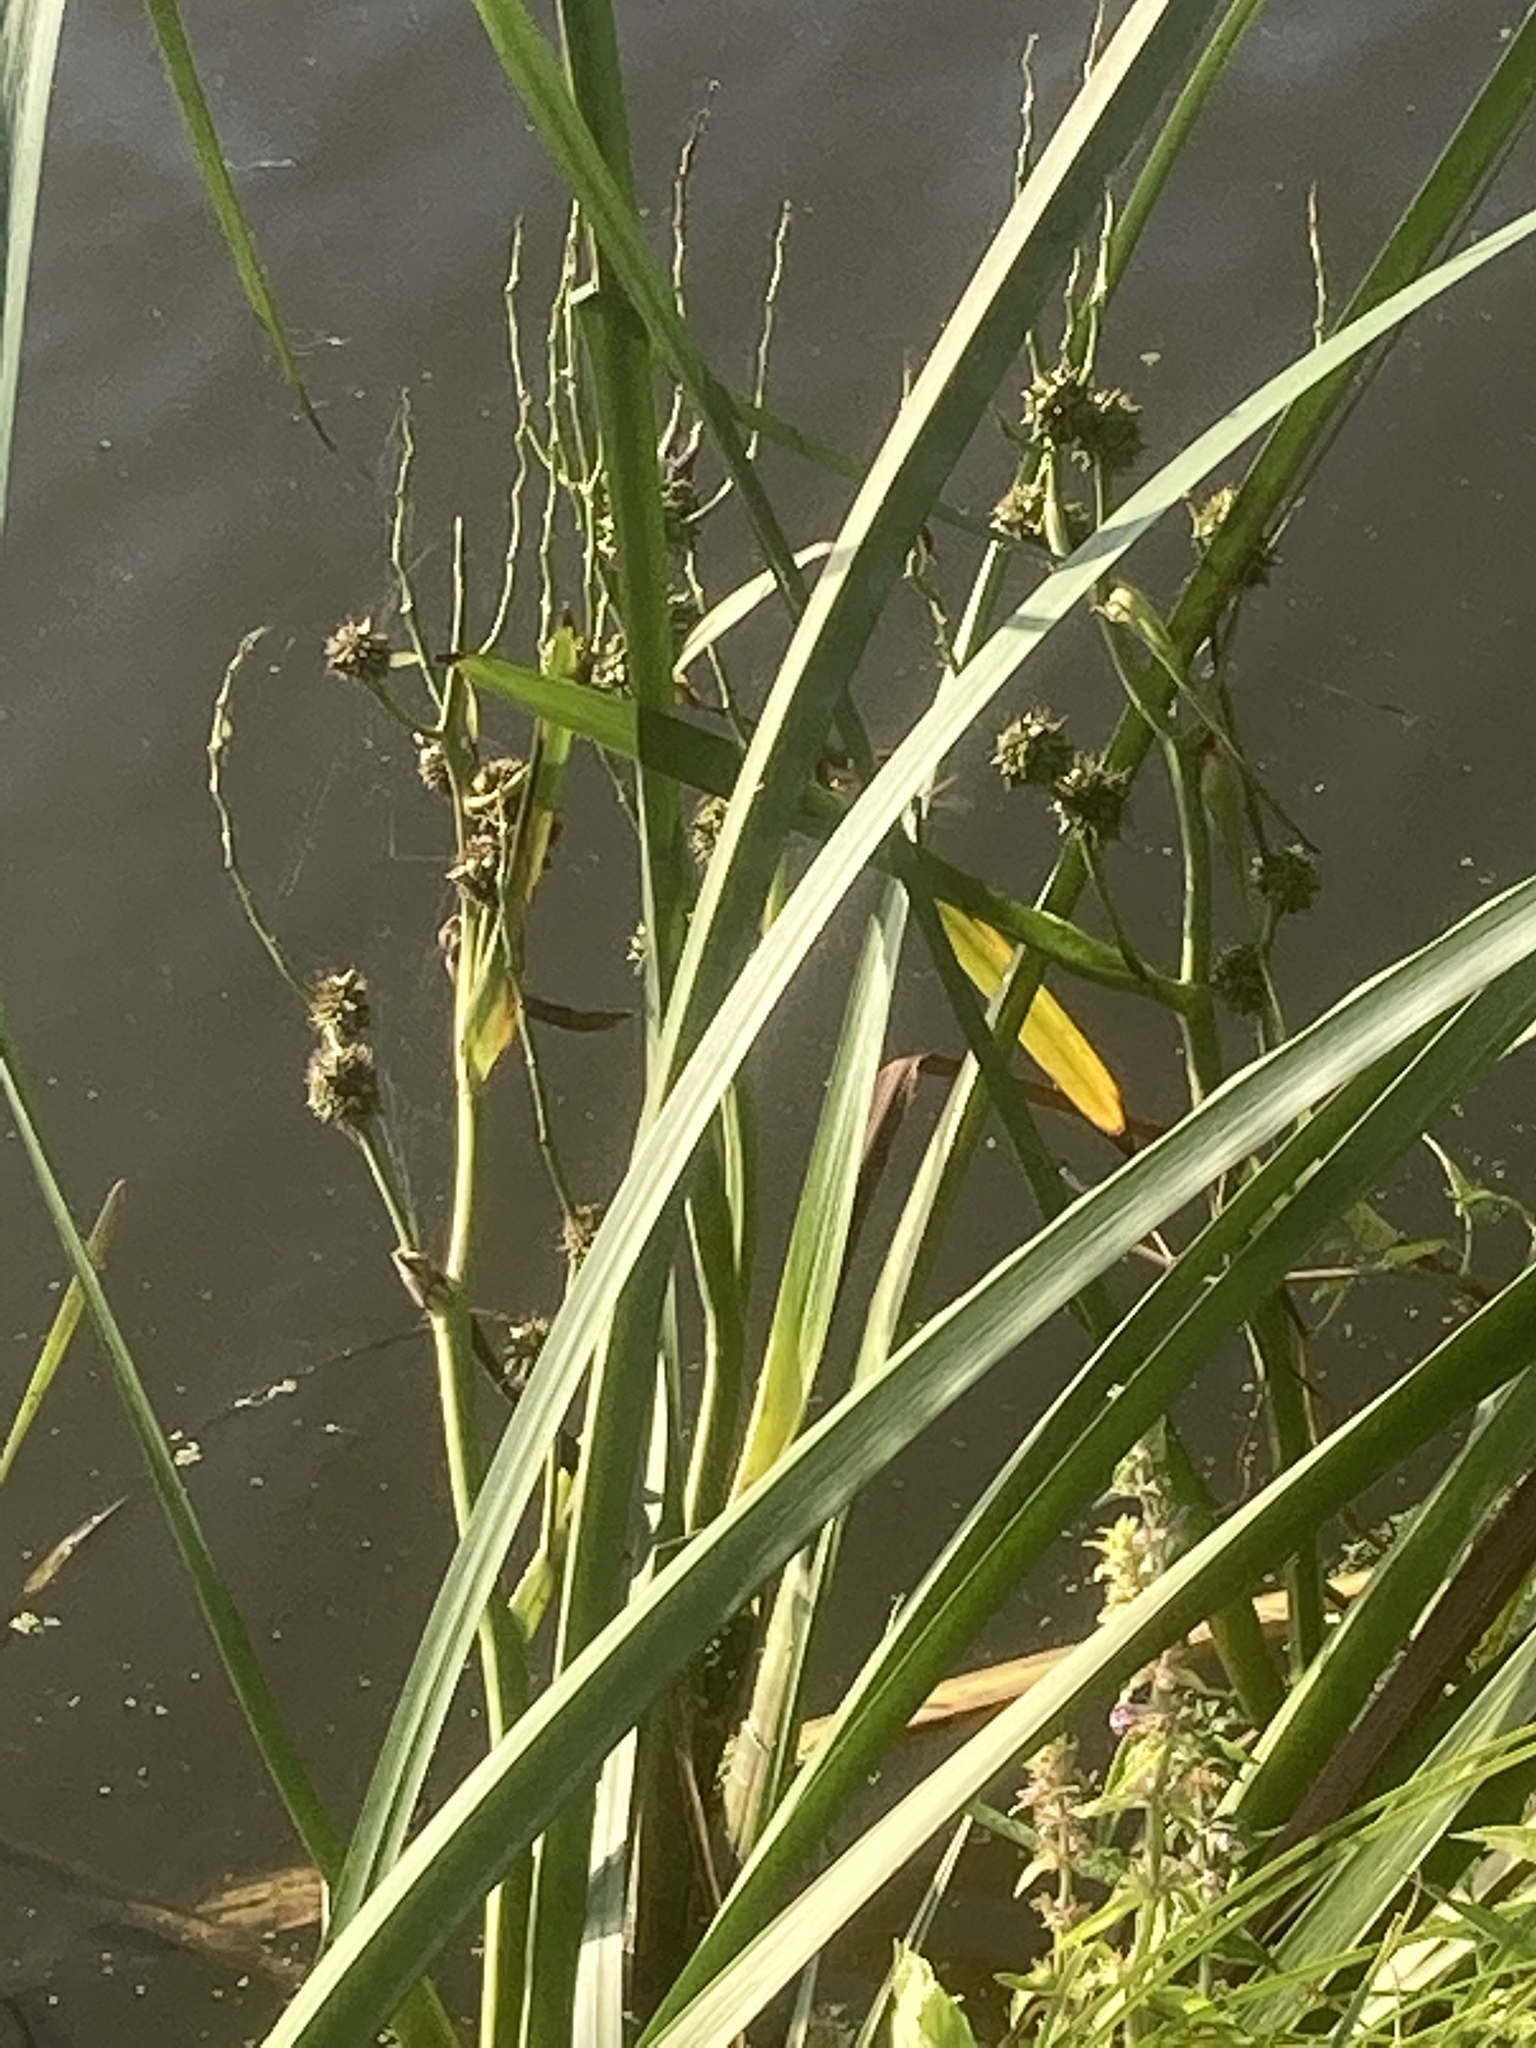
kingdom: Plantae
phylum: Tracheophyta
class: Liliopsida
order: Poales
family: Typhaceae
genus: Sparganium
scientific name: Sparganium erectum
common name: Branched bur-reed
